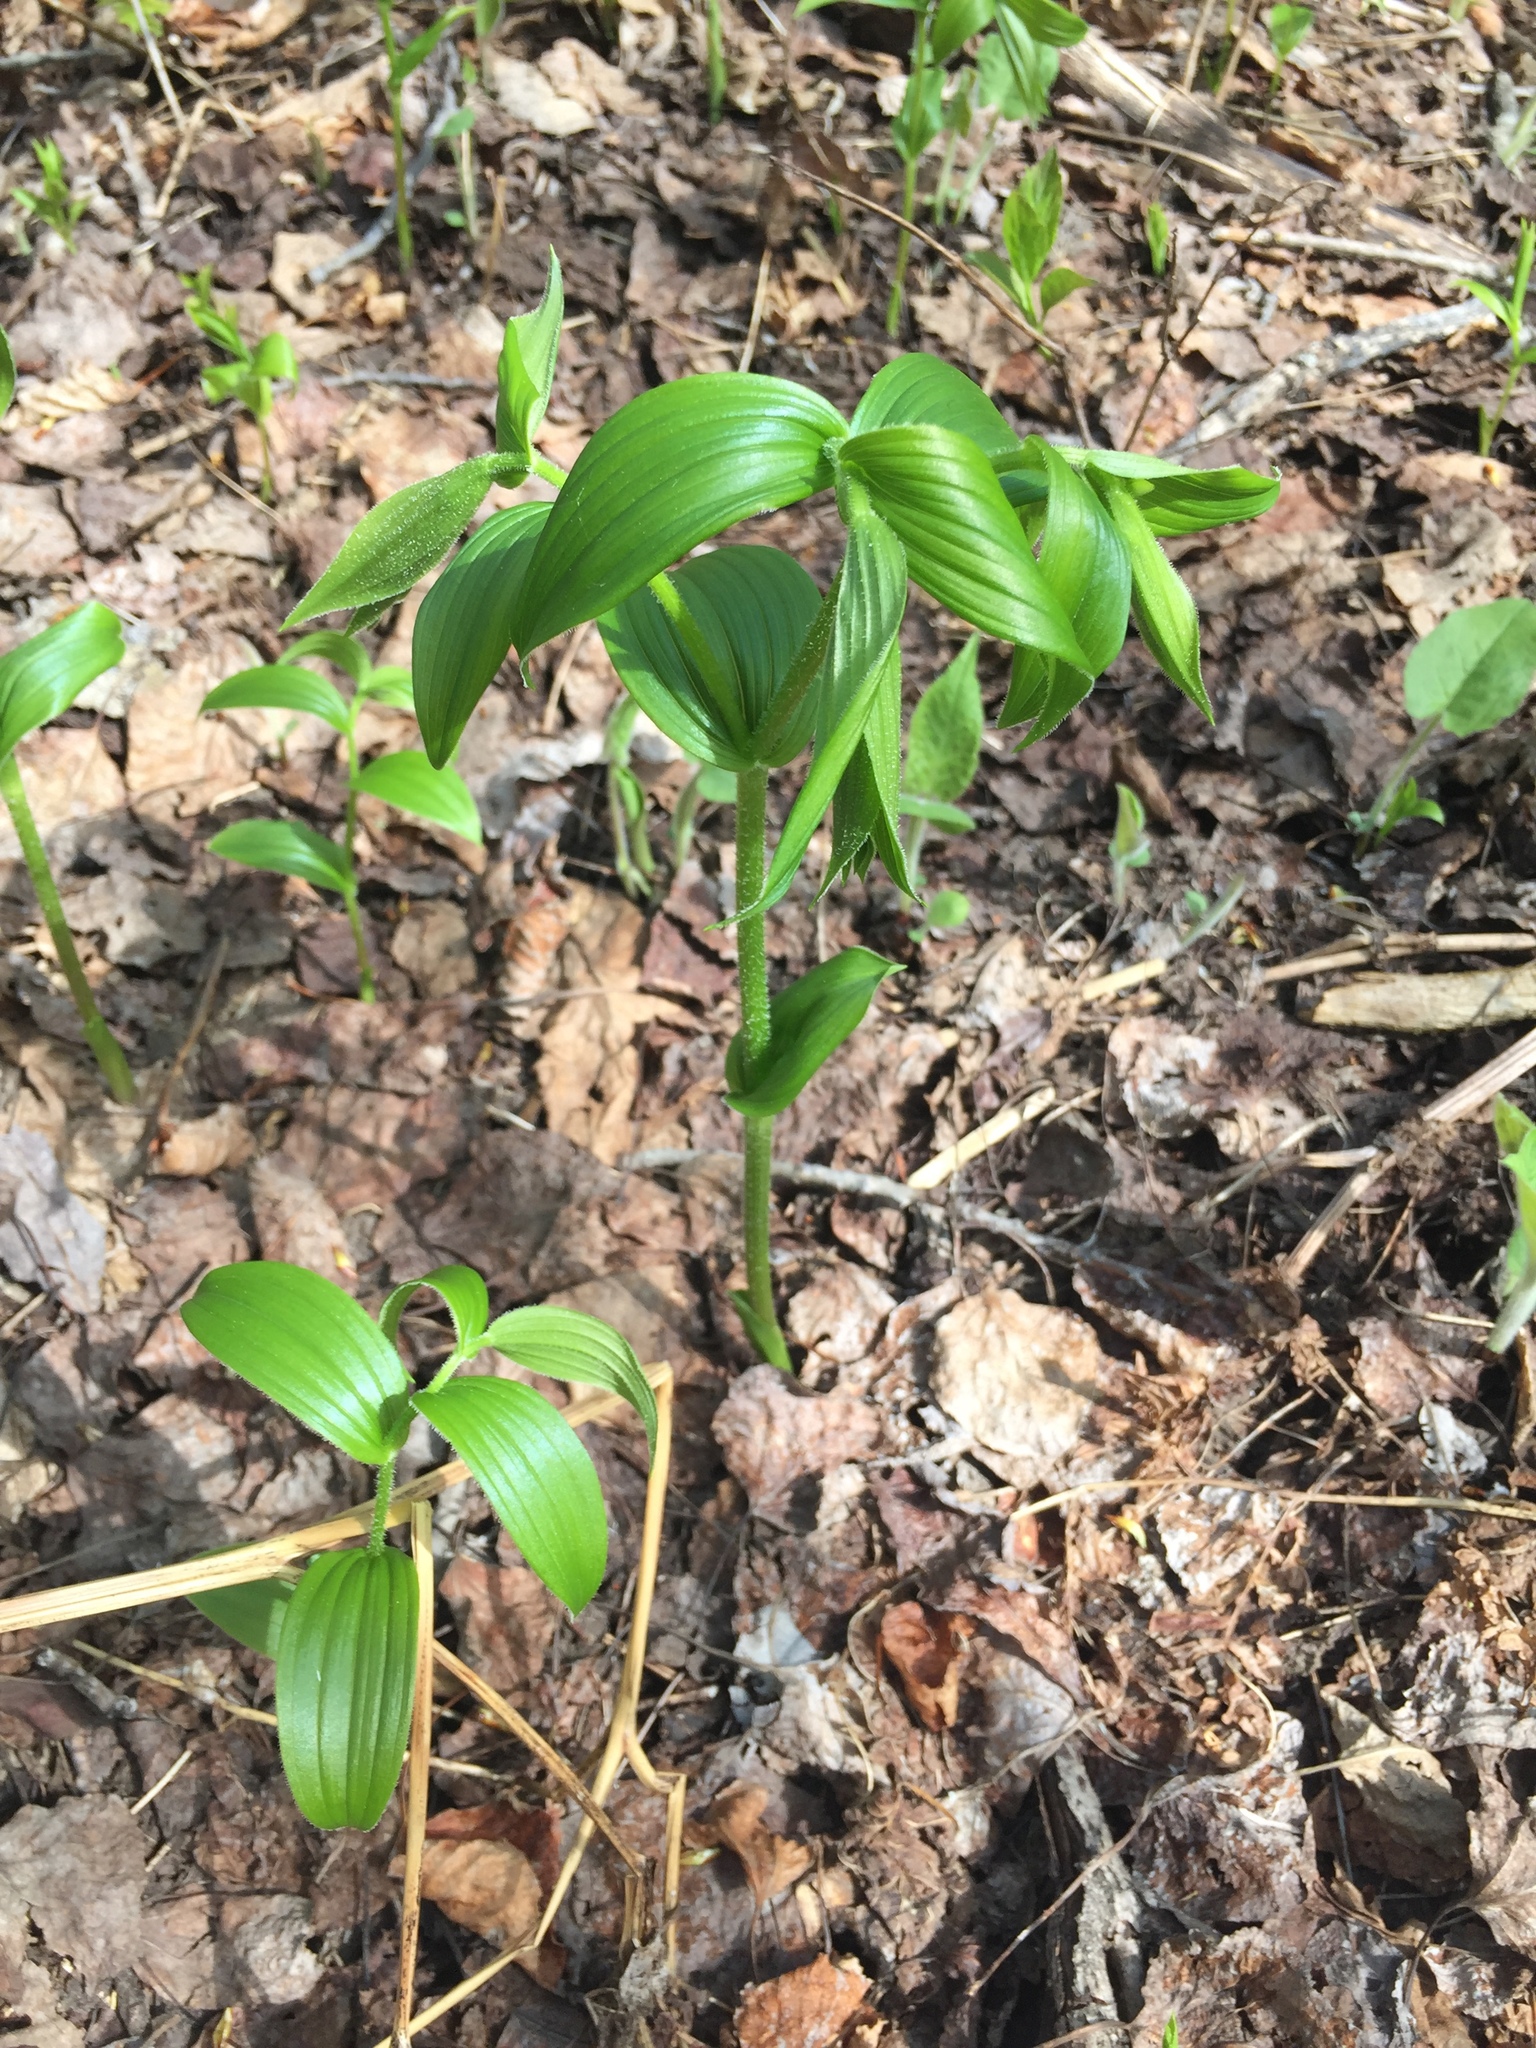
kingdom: Plantae
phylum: Tracheophyta
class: Liliopsida
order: Liliales
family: Liliaceae
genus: Streptopus
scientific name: Streptopus lanceolatus
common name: Rose mandarin
